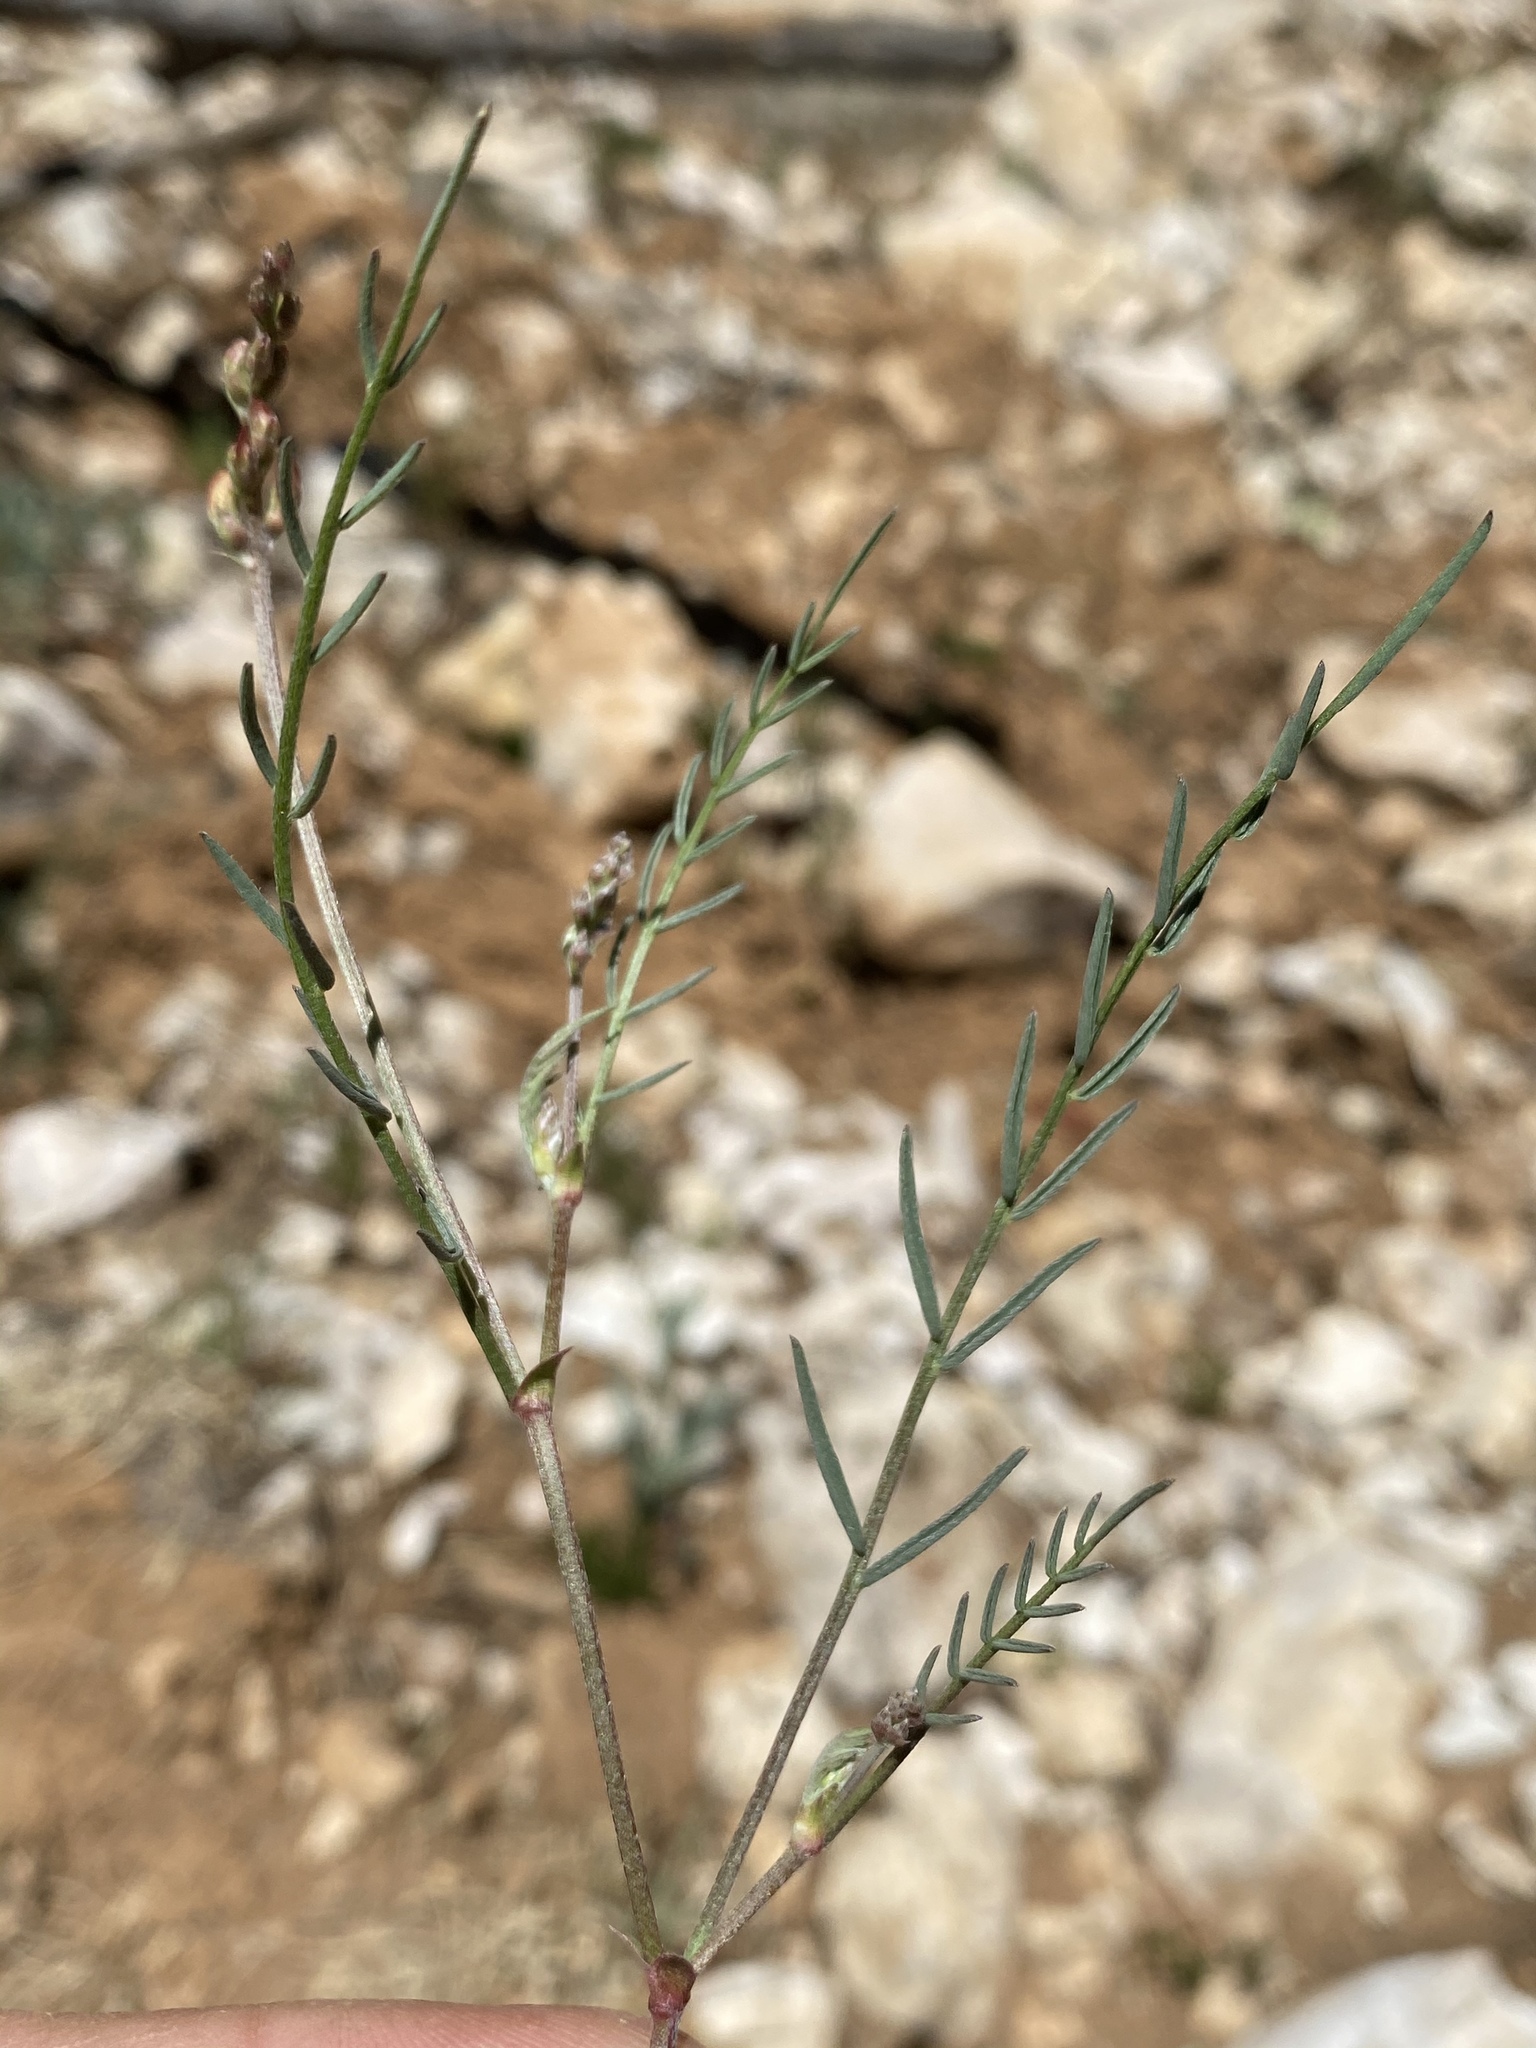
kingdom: Plantae
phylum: Tracheophyta
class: Magnoliopsida
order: Fabales
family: Fabaceae
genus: Astragalus
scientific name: Astragalus miser
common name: Timber milkvetch
